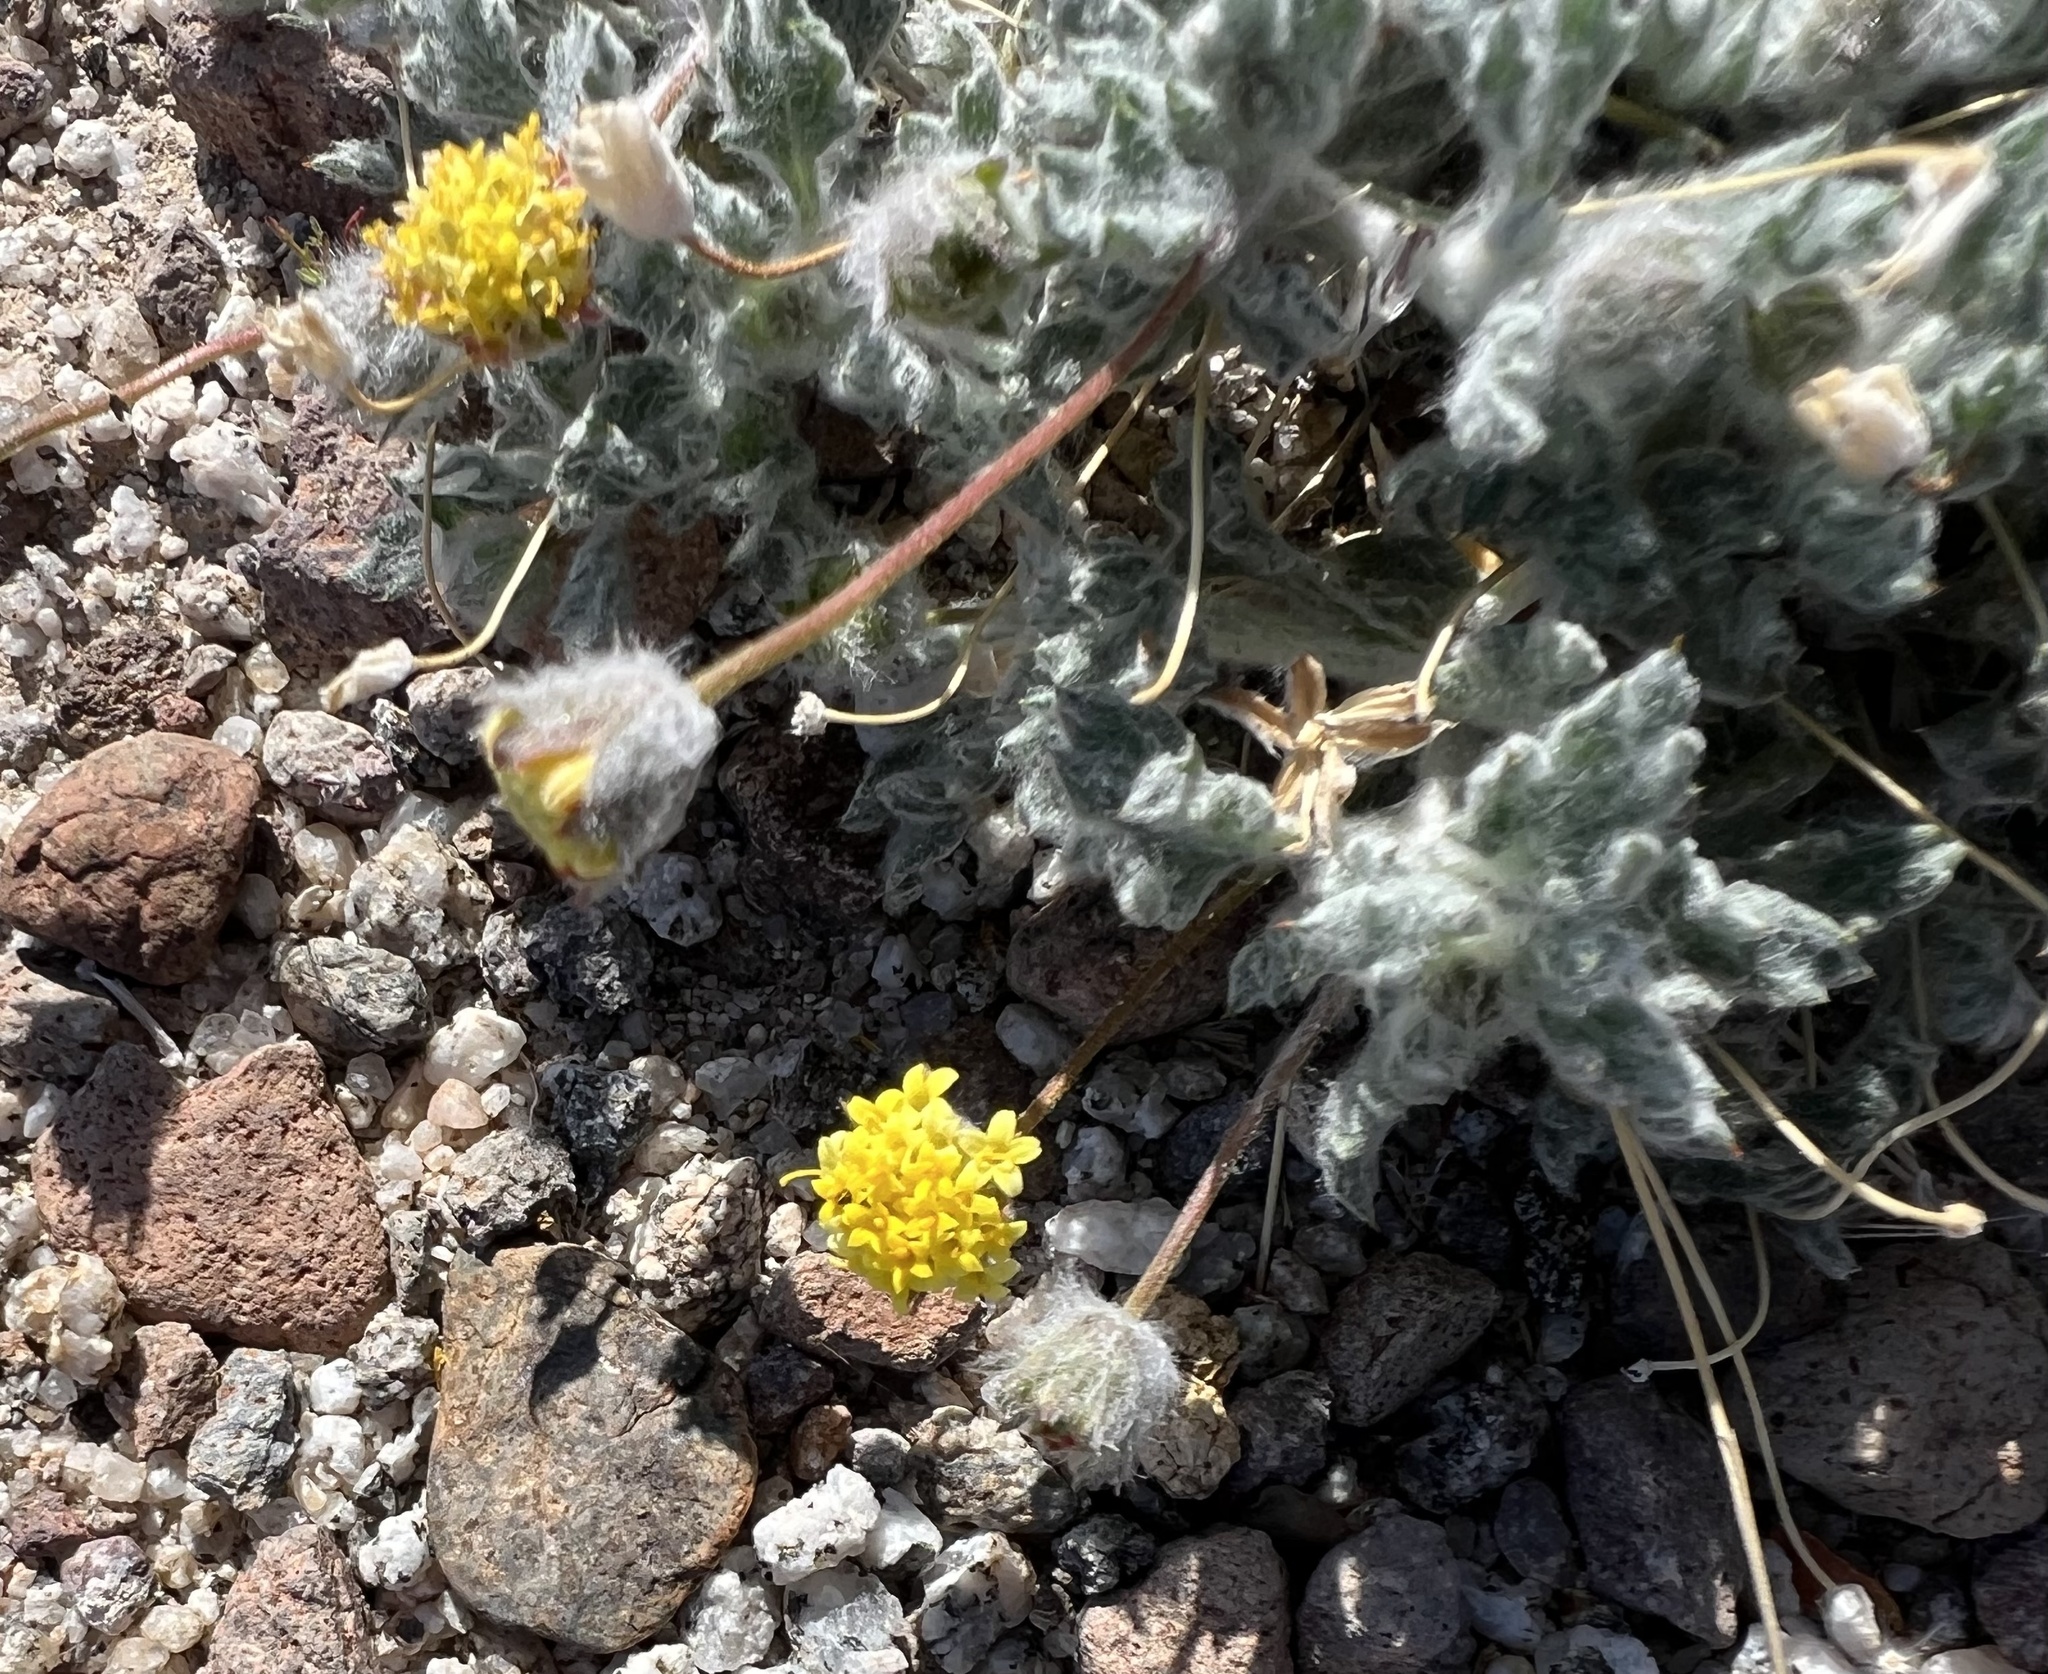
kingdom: Plantae
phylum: Tracheophyta
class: Magnoliopsida
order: Asterales
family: Asteraceae
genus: Trichoptilium
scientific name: Trichoptilium incisum
